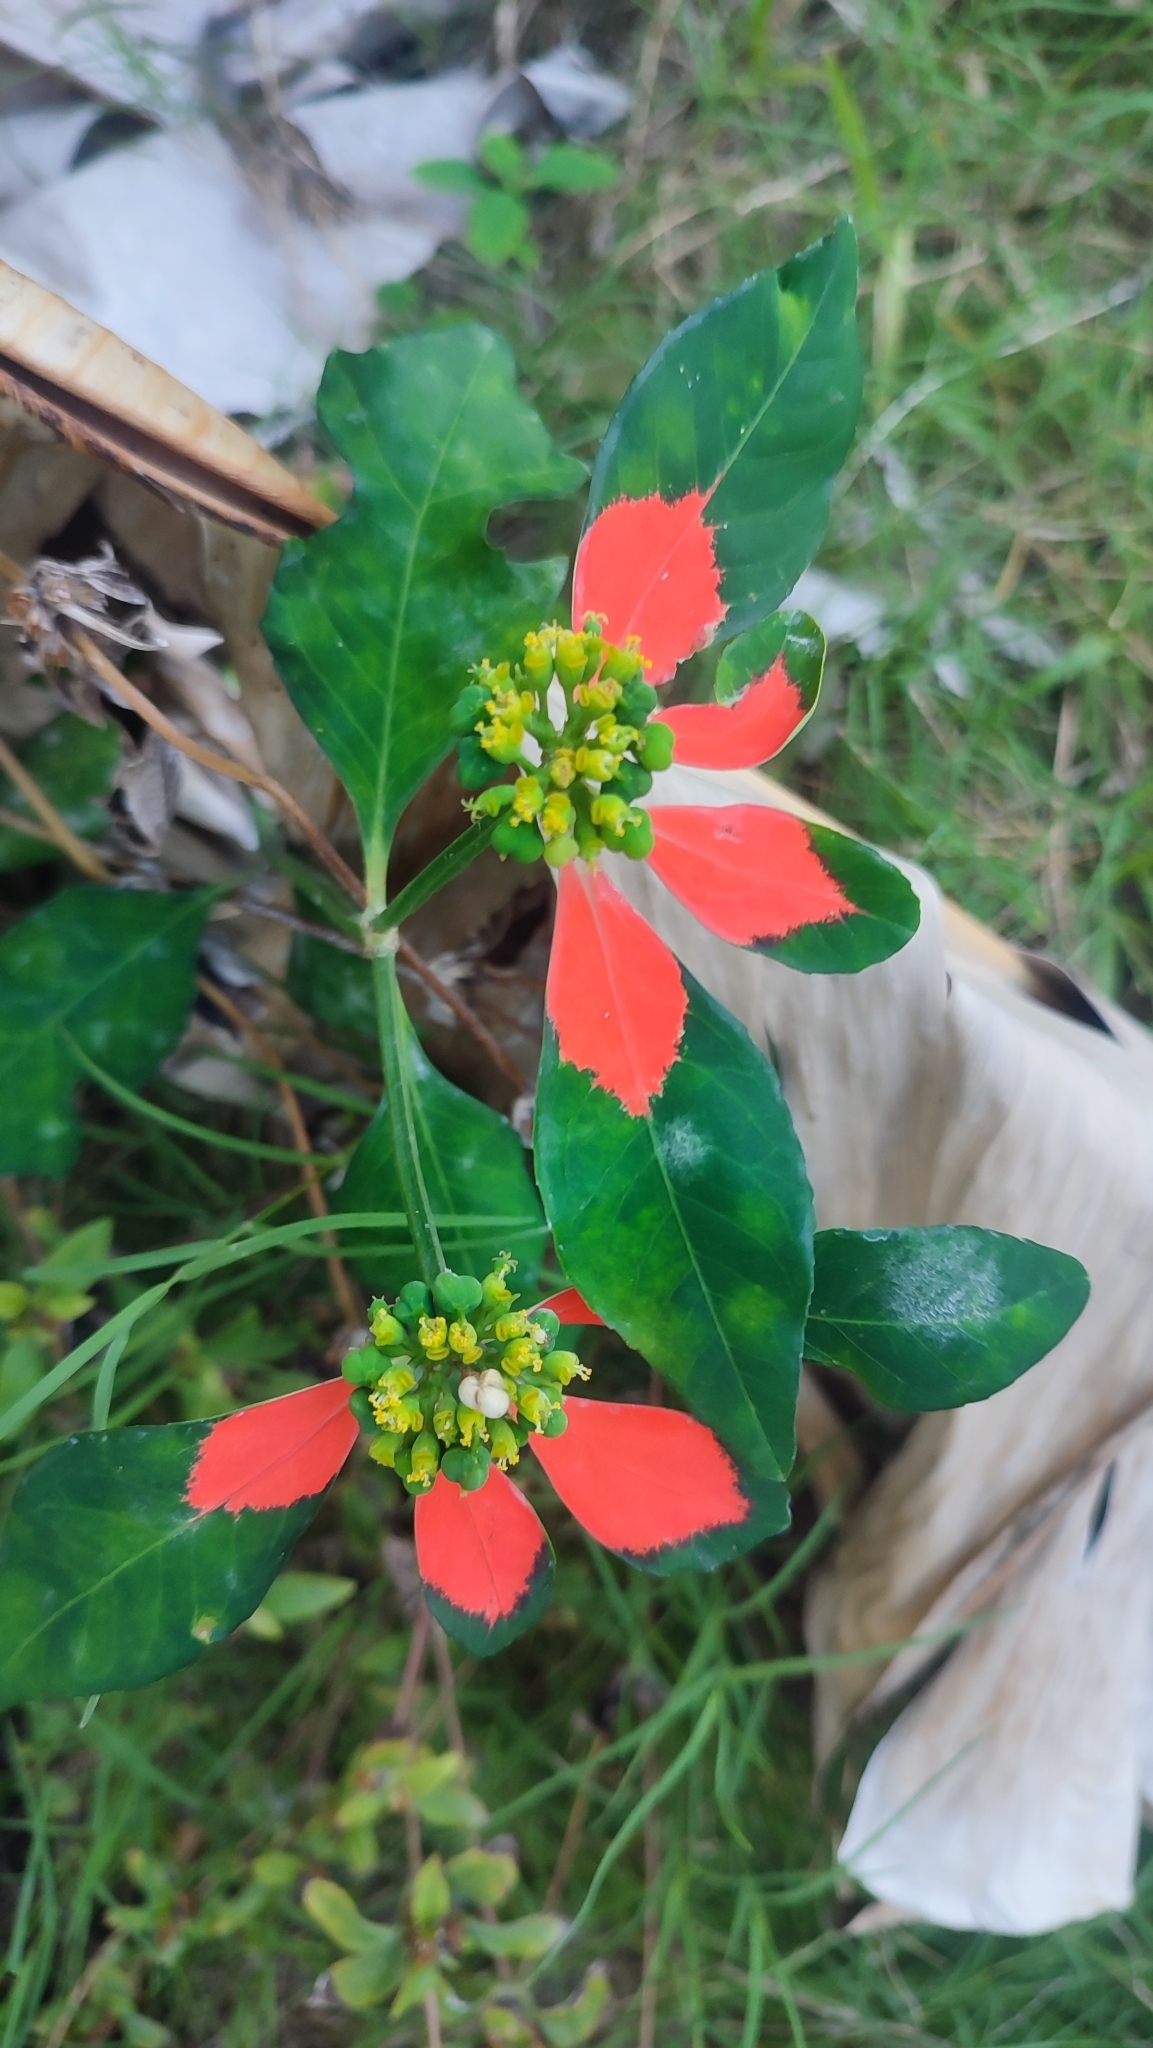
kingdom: Plantae
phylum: Tracheophyta
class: Magnoliopsida
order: Malpighiales
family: Euphorbiaceae
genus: Euphorbia
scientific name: Euphorbia heterophylla
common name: Mexican fireplant
